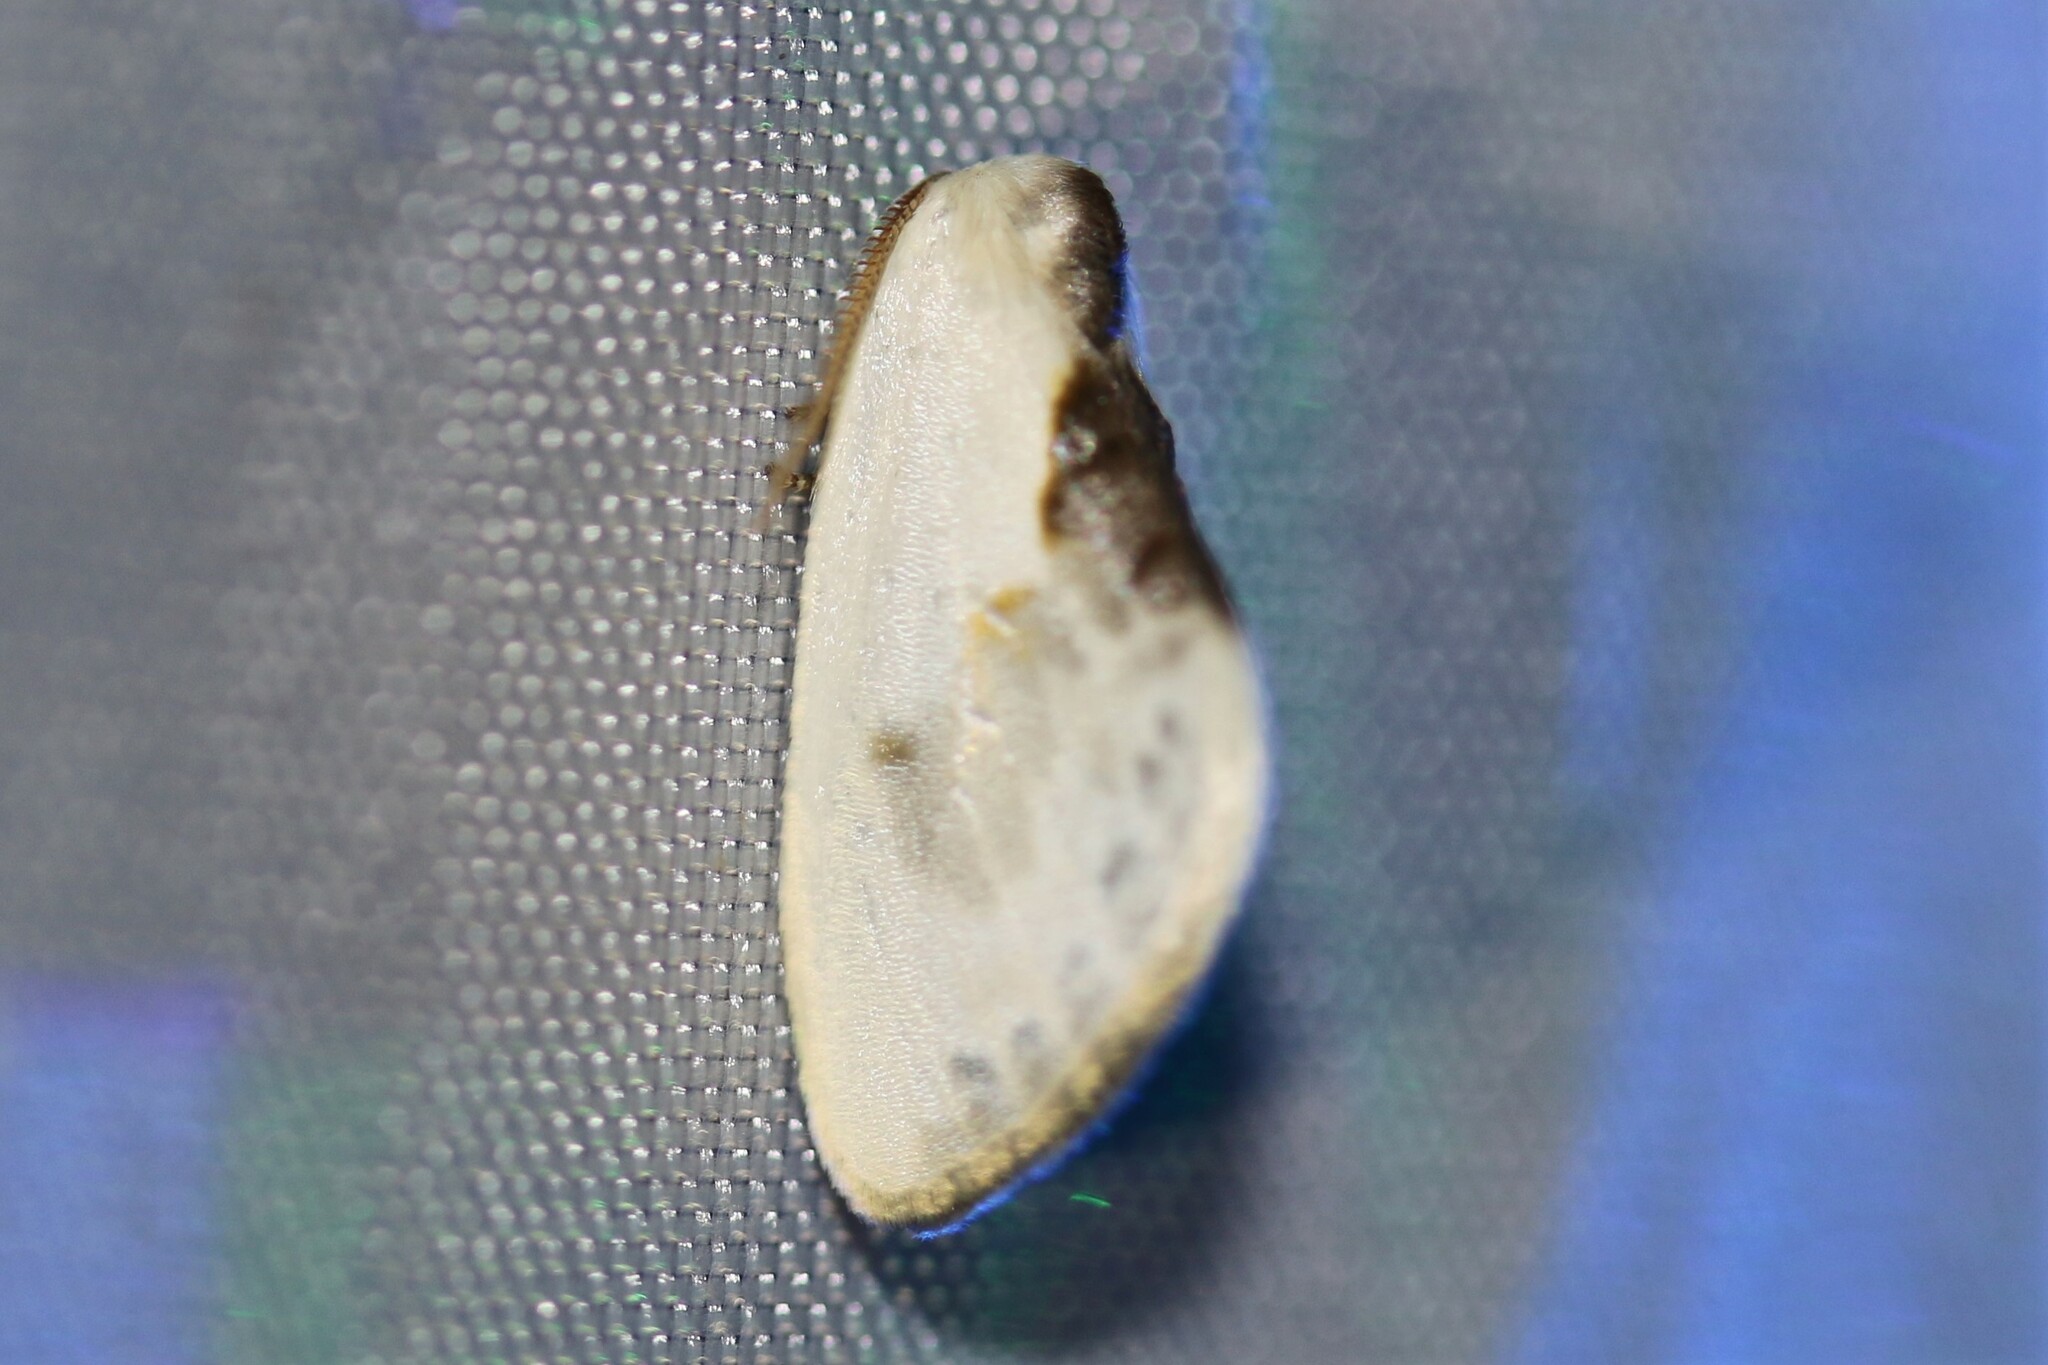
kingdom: Animalia
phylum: Arthropoda
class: Insecta
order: Lepidoptera
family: Drepanidae
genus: Cilix
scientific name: Cilix glaucata
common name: Chinese character
